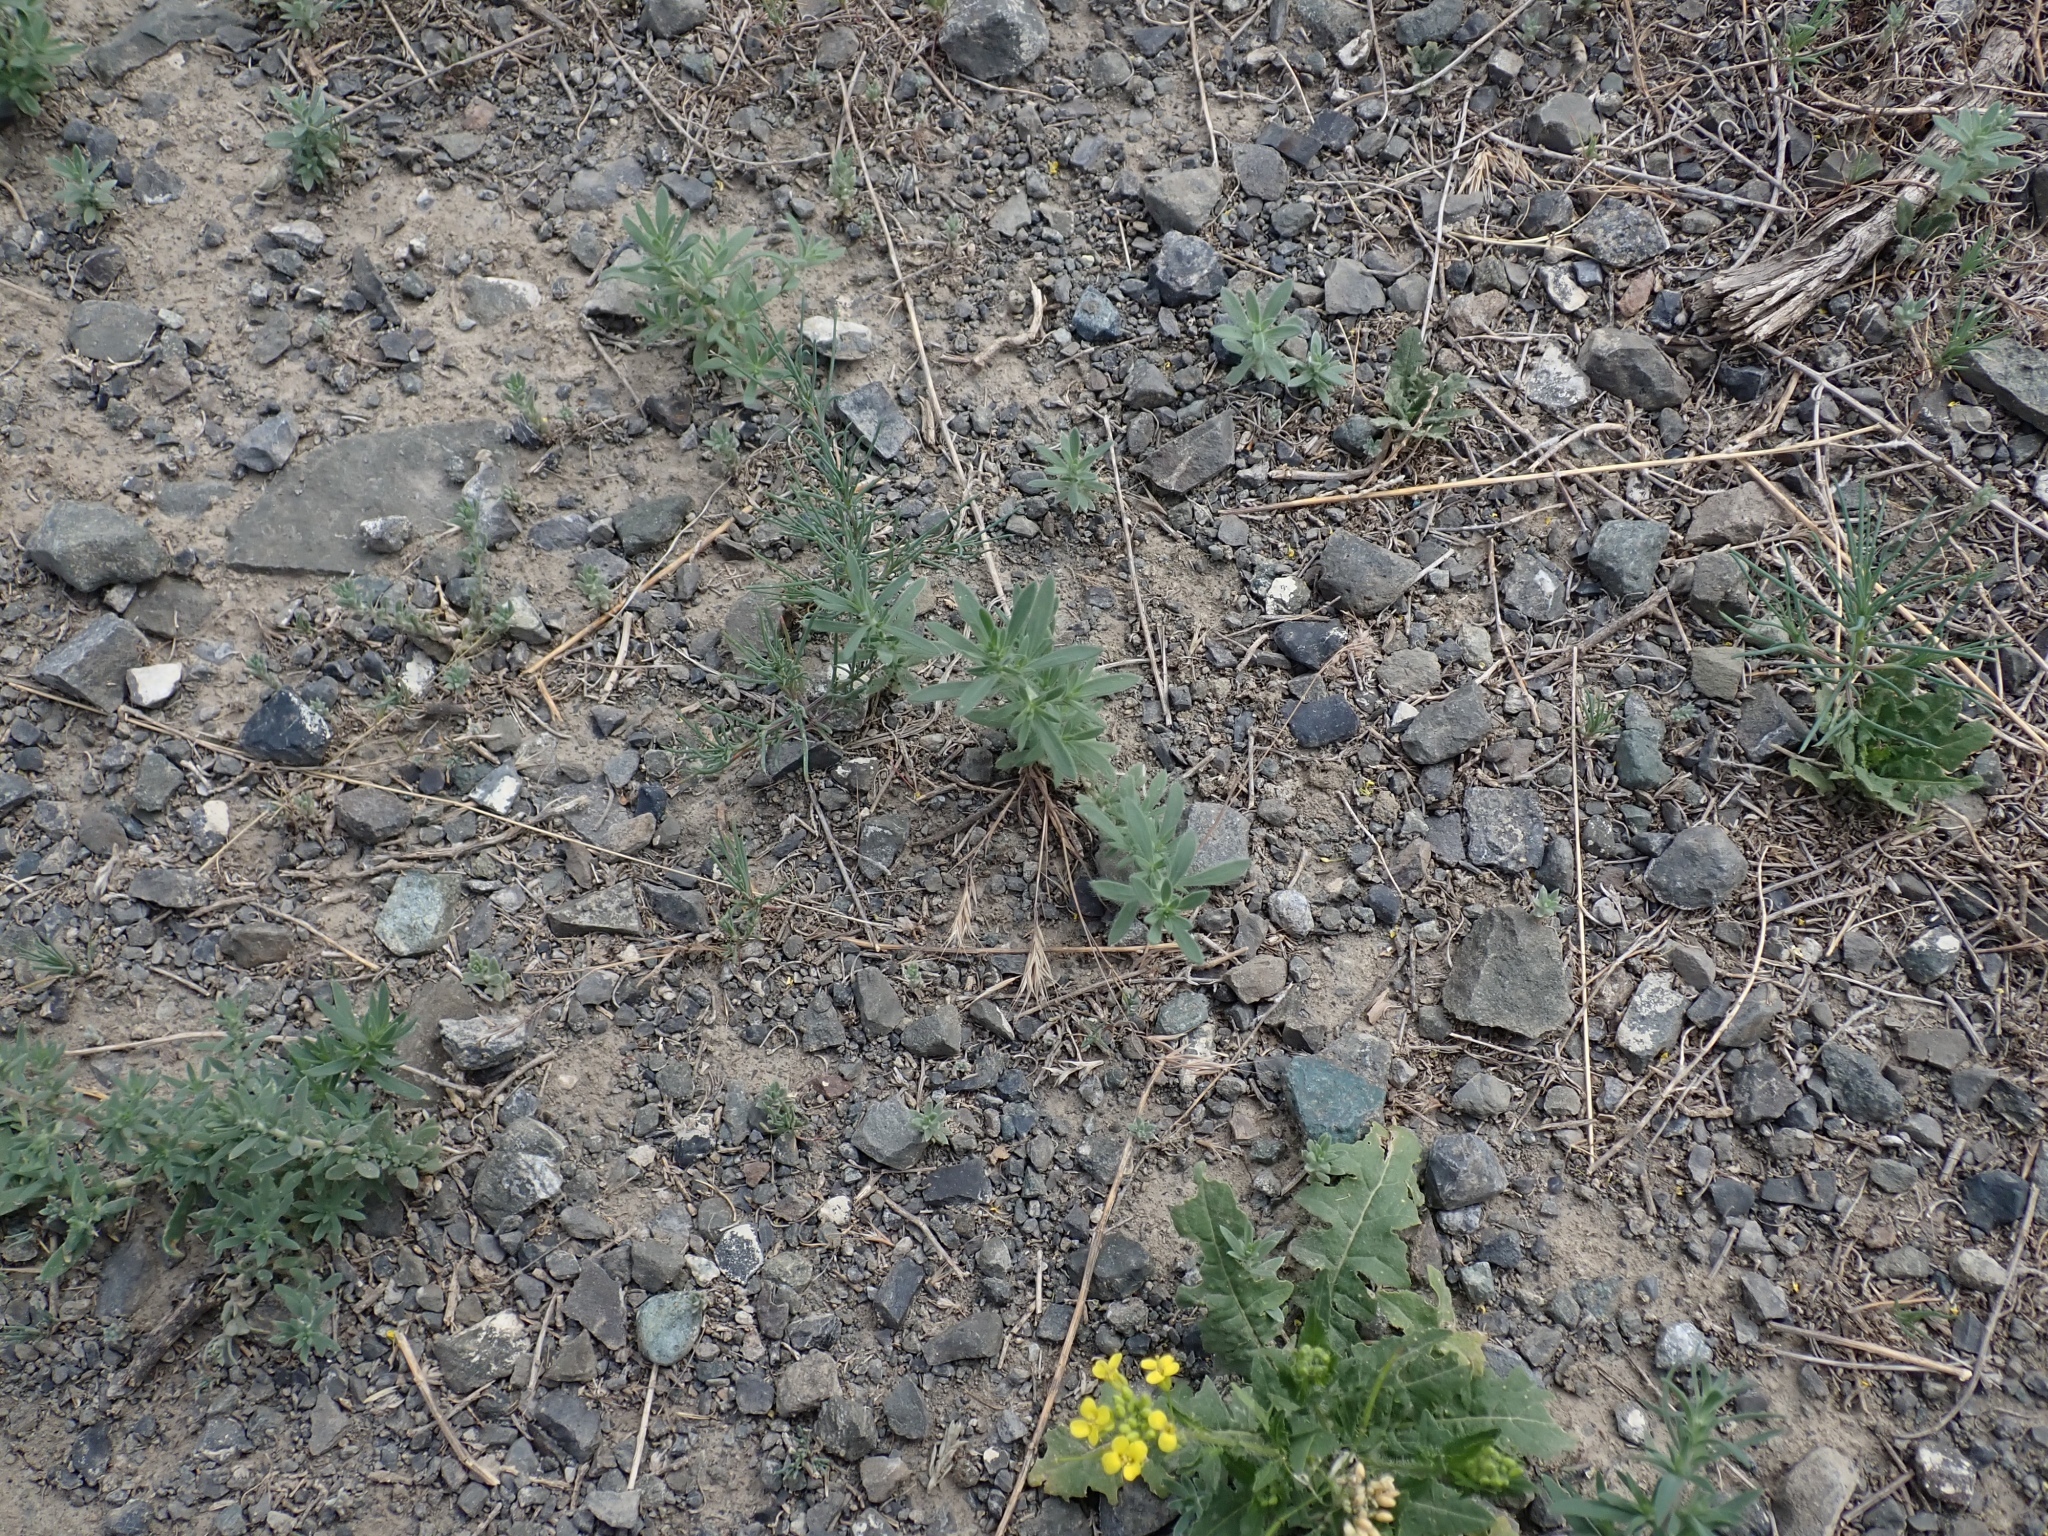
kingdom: Plantae
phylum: Tracheophyta
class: Magnoliopsida
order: Caryophyllales
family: Amaranthaceae
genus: Bassia
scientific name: Bassia scoparia
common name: Belvedere
